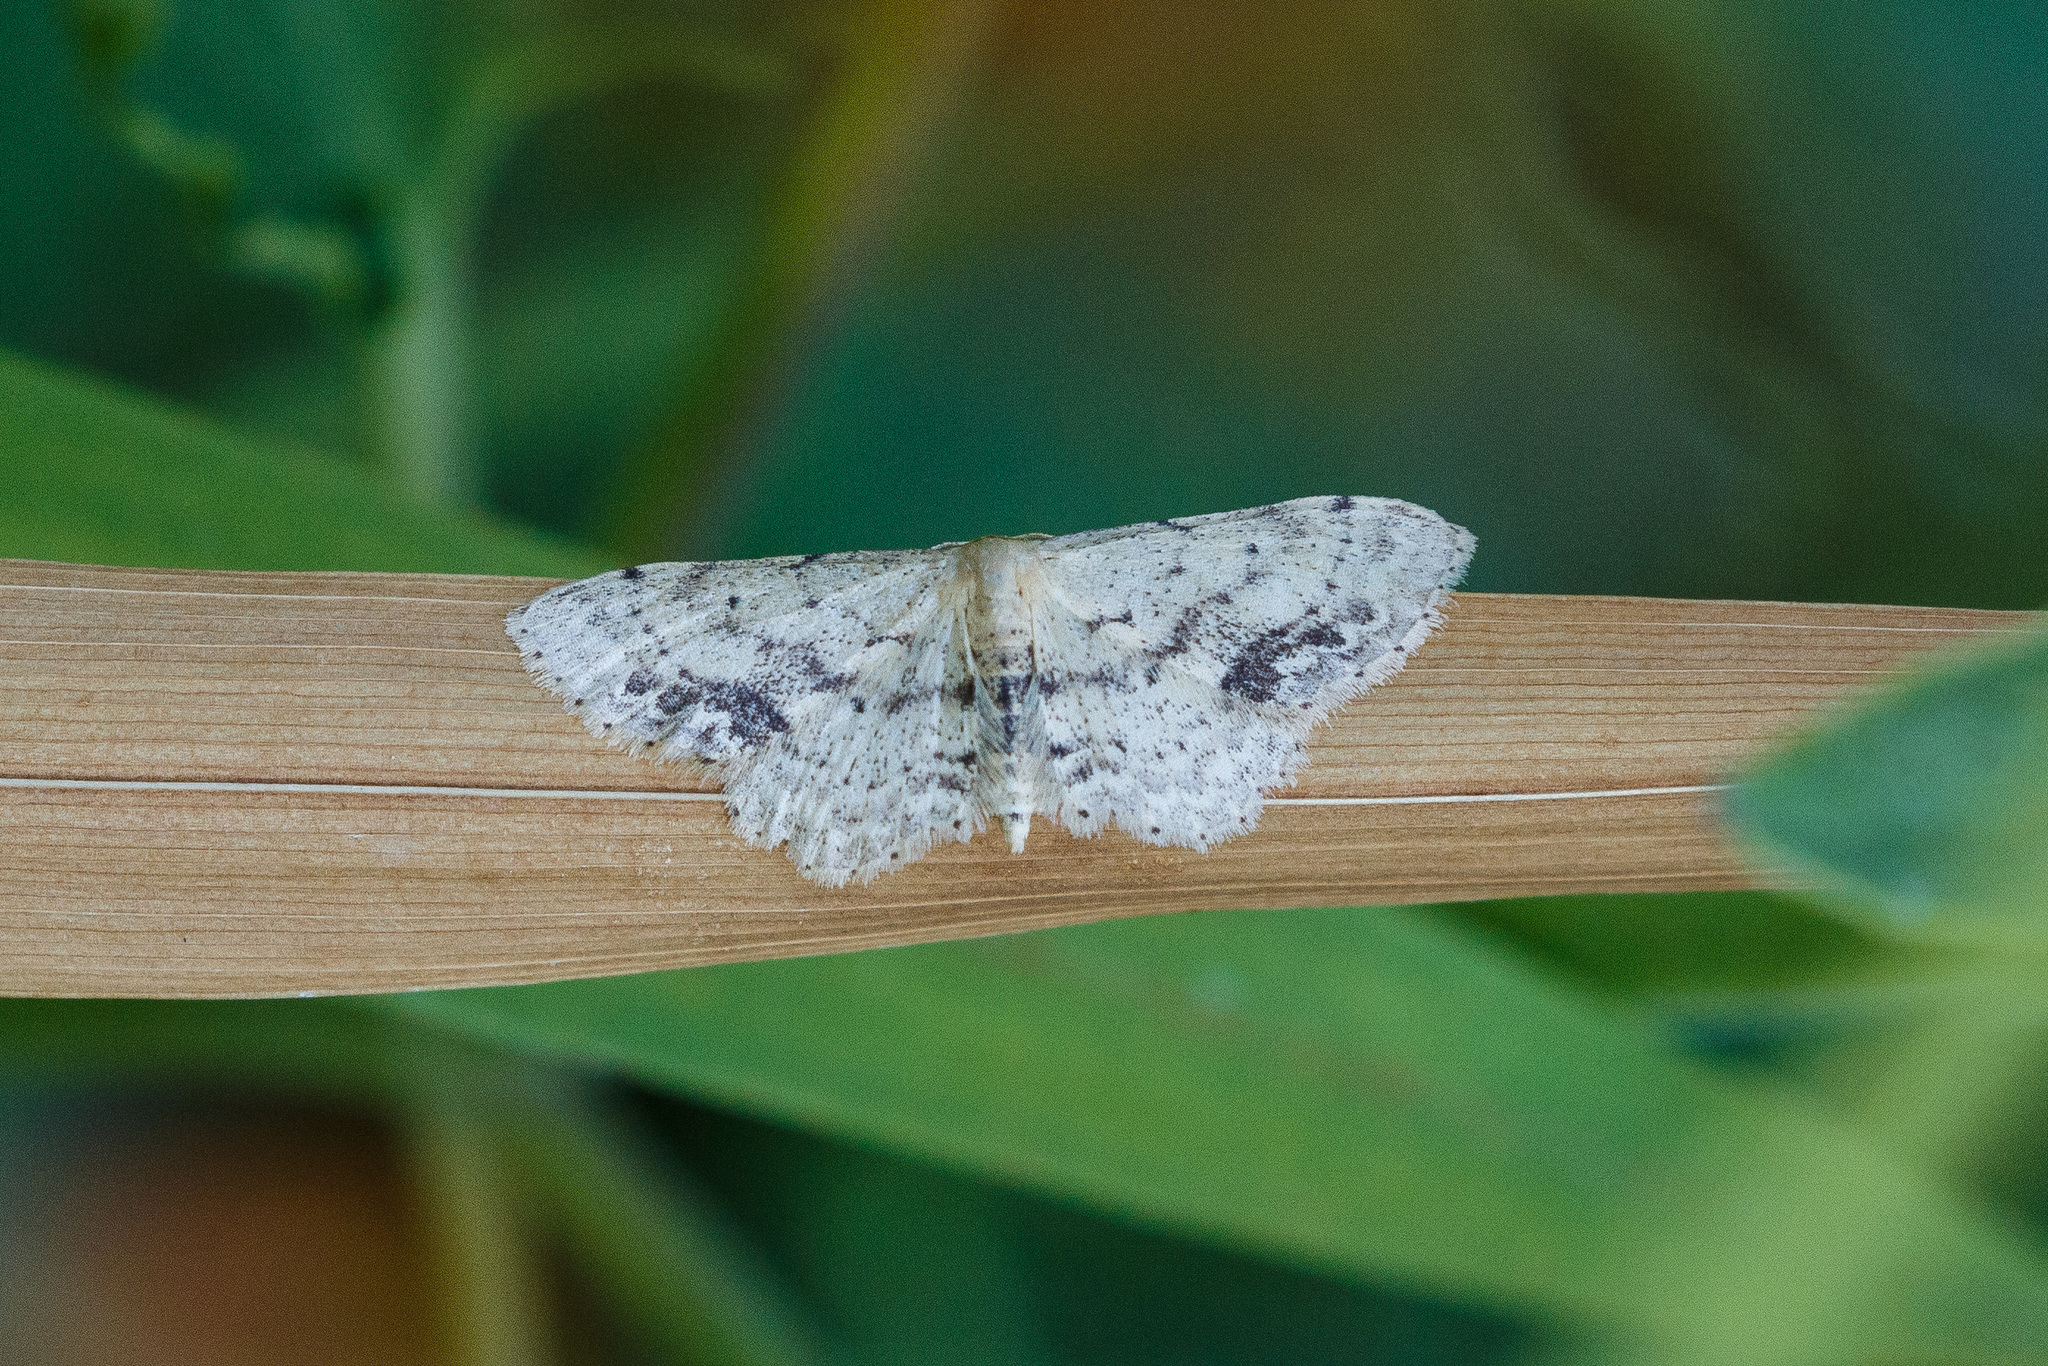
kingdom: Animalia
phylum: Arthropoda
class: Insecta
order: Lepidoptera
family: Geometridae
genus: Idaea
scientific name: Idaea dimidiata
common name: Single-dotted wave
